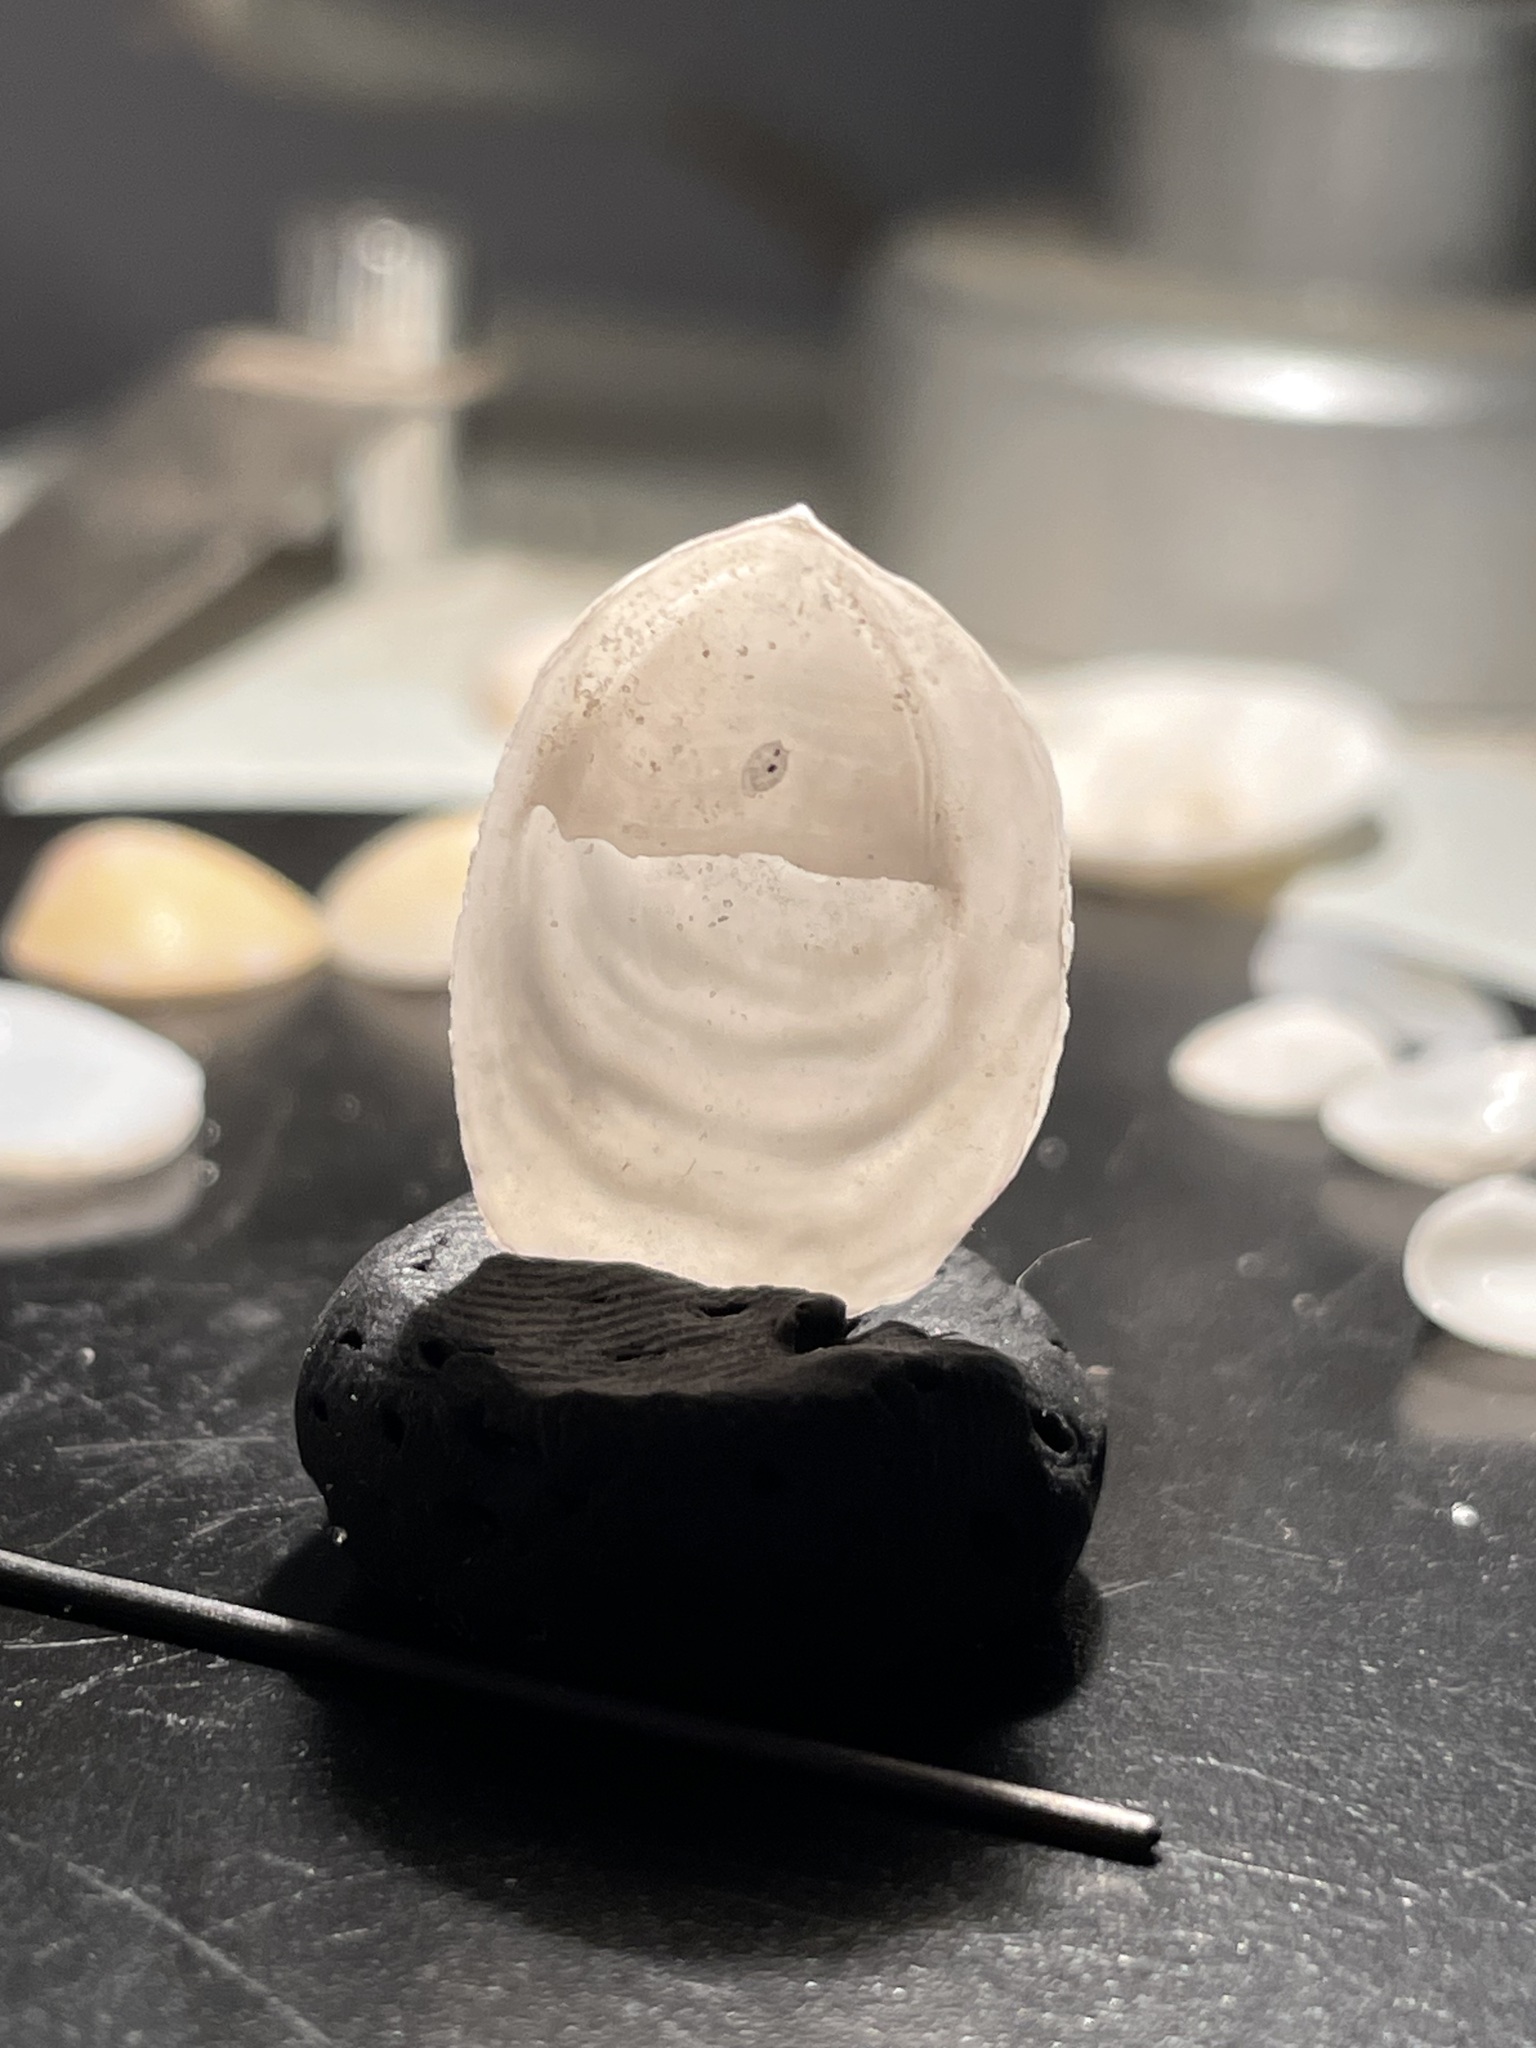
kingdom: Animalia
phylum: Mollusca
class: Gastropoda
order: Littorinimorpha
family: Calyptraeidae
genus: Crepidula
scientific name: Crepidula depressa
